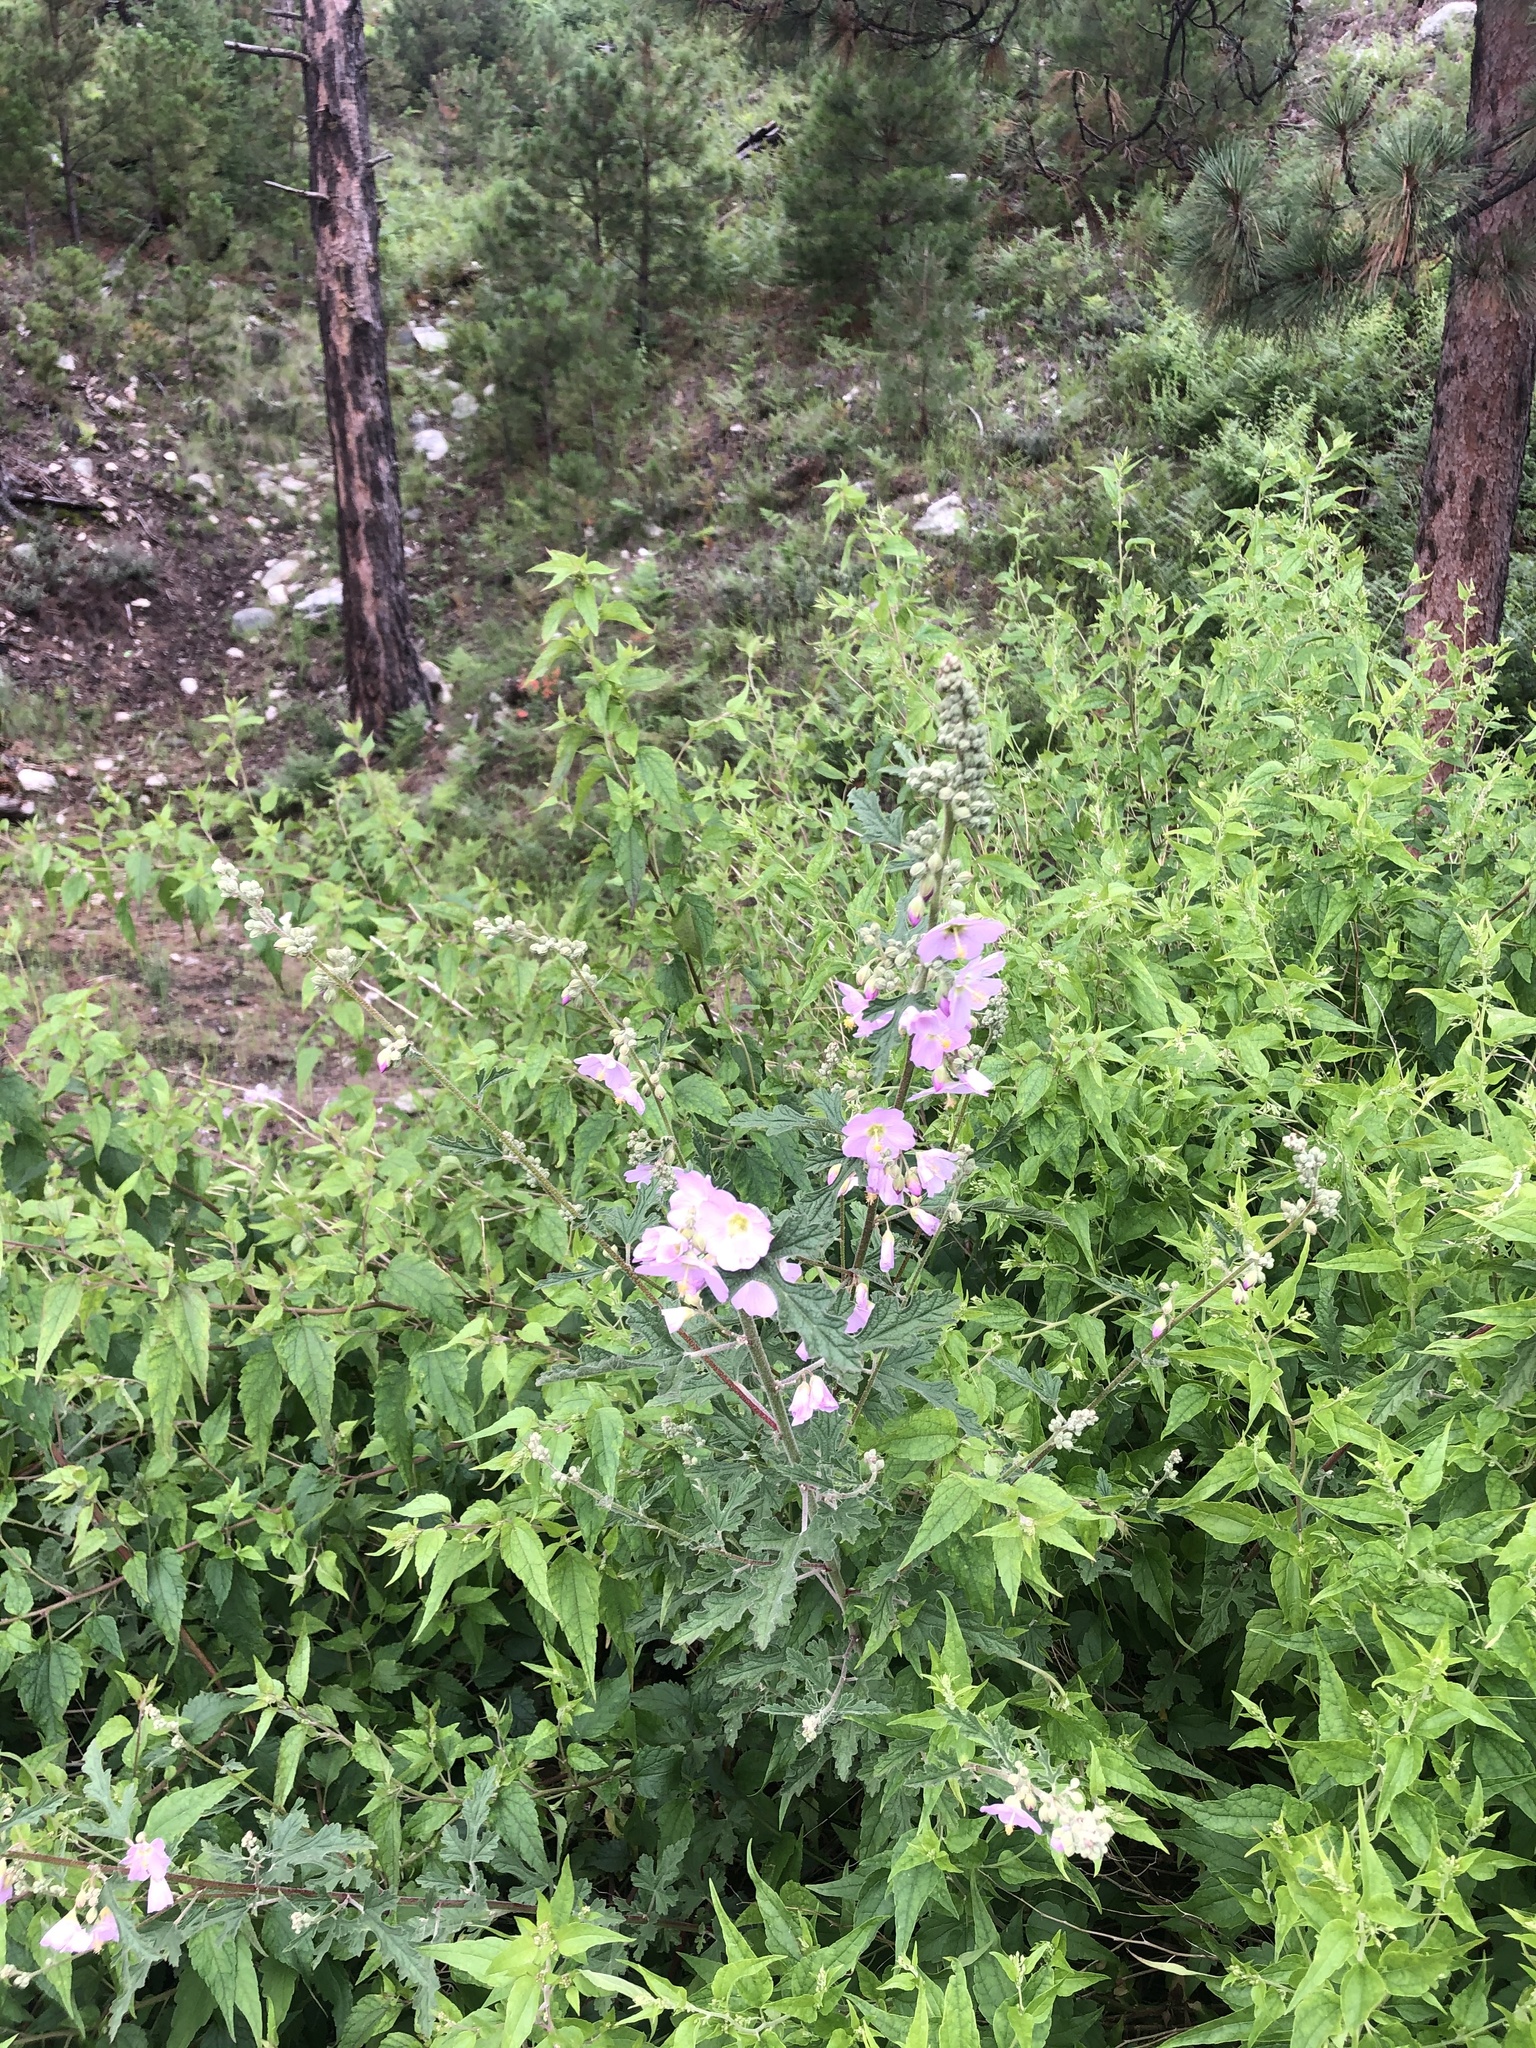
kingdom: Plantae
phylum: Tracheophyta
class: Magnoliopsida
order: Malvales
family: Malvaceae
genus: Sphaeralcea
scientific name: Sphaeralcea fendleri
